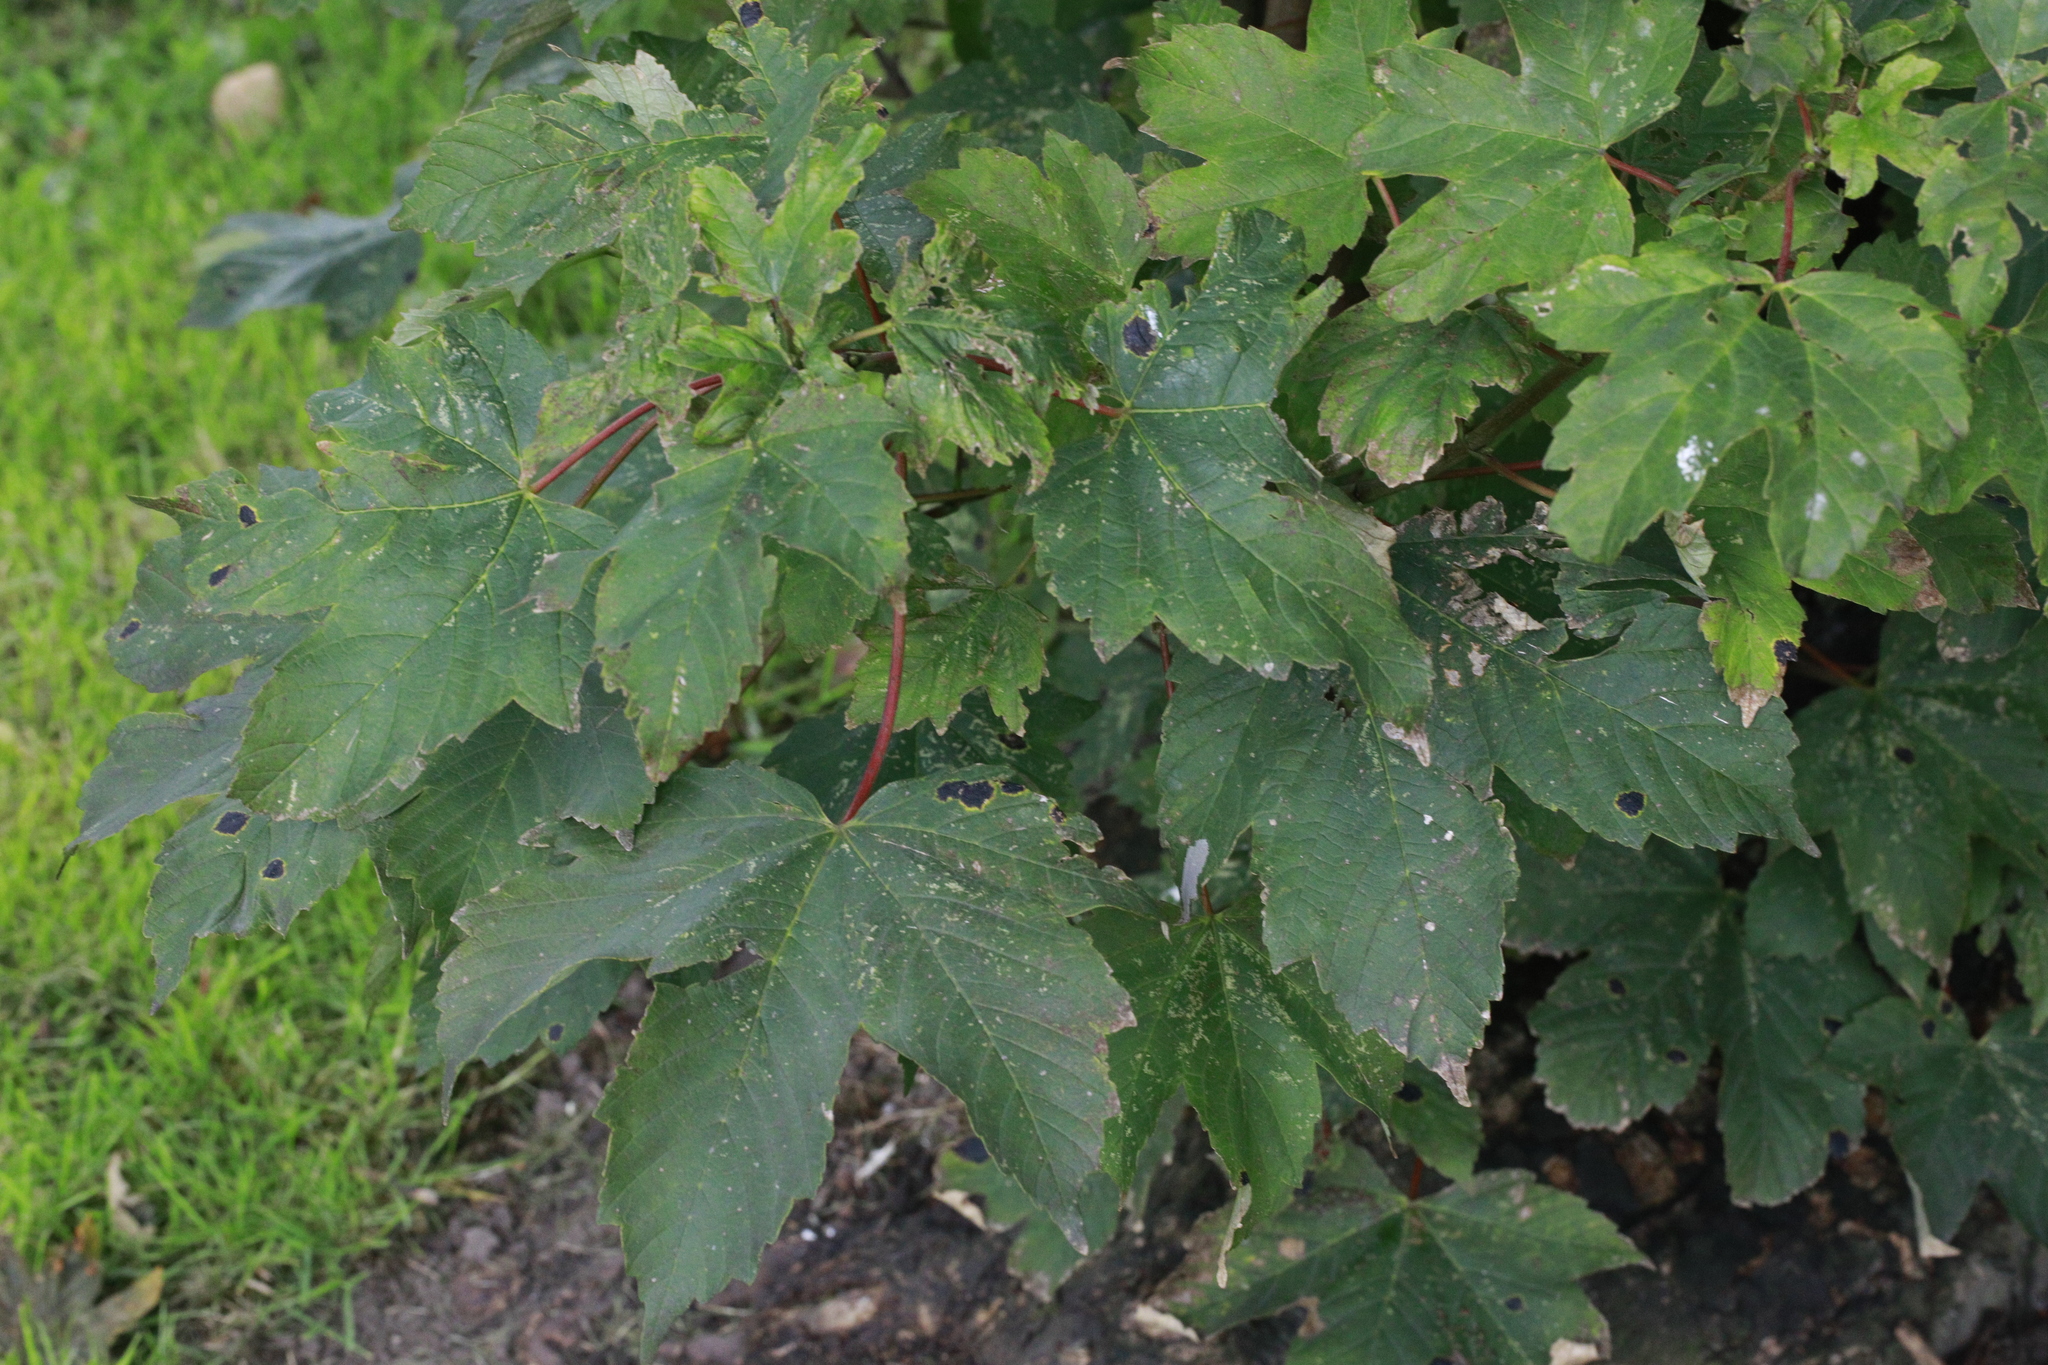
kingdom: Plantae
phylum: Tracheophyta
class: Magnoliopsida
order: Sapindales
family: Sapindaceae
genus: Acer
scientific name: Acer pseudoplatanus
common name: Sycamore
